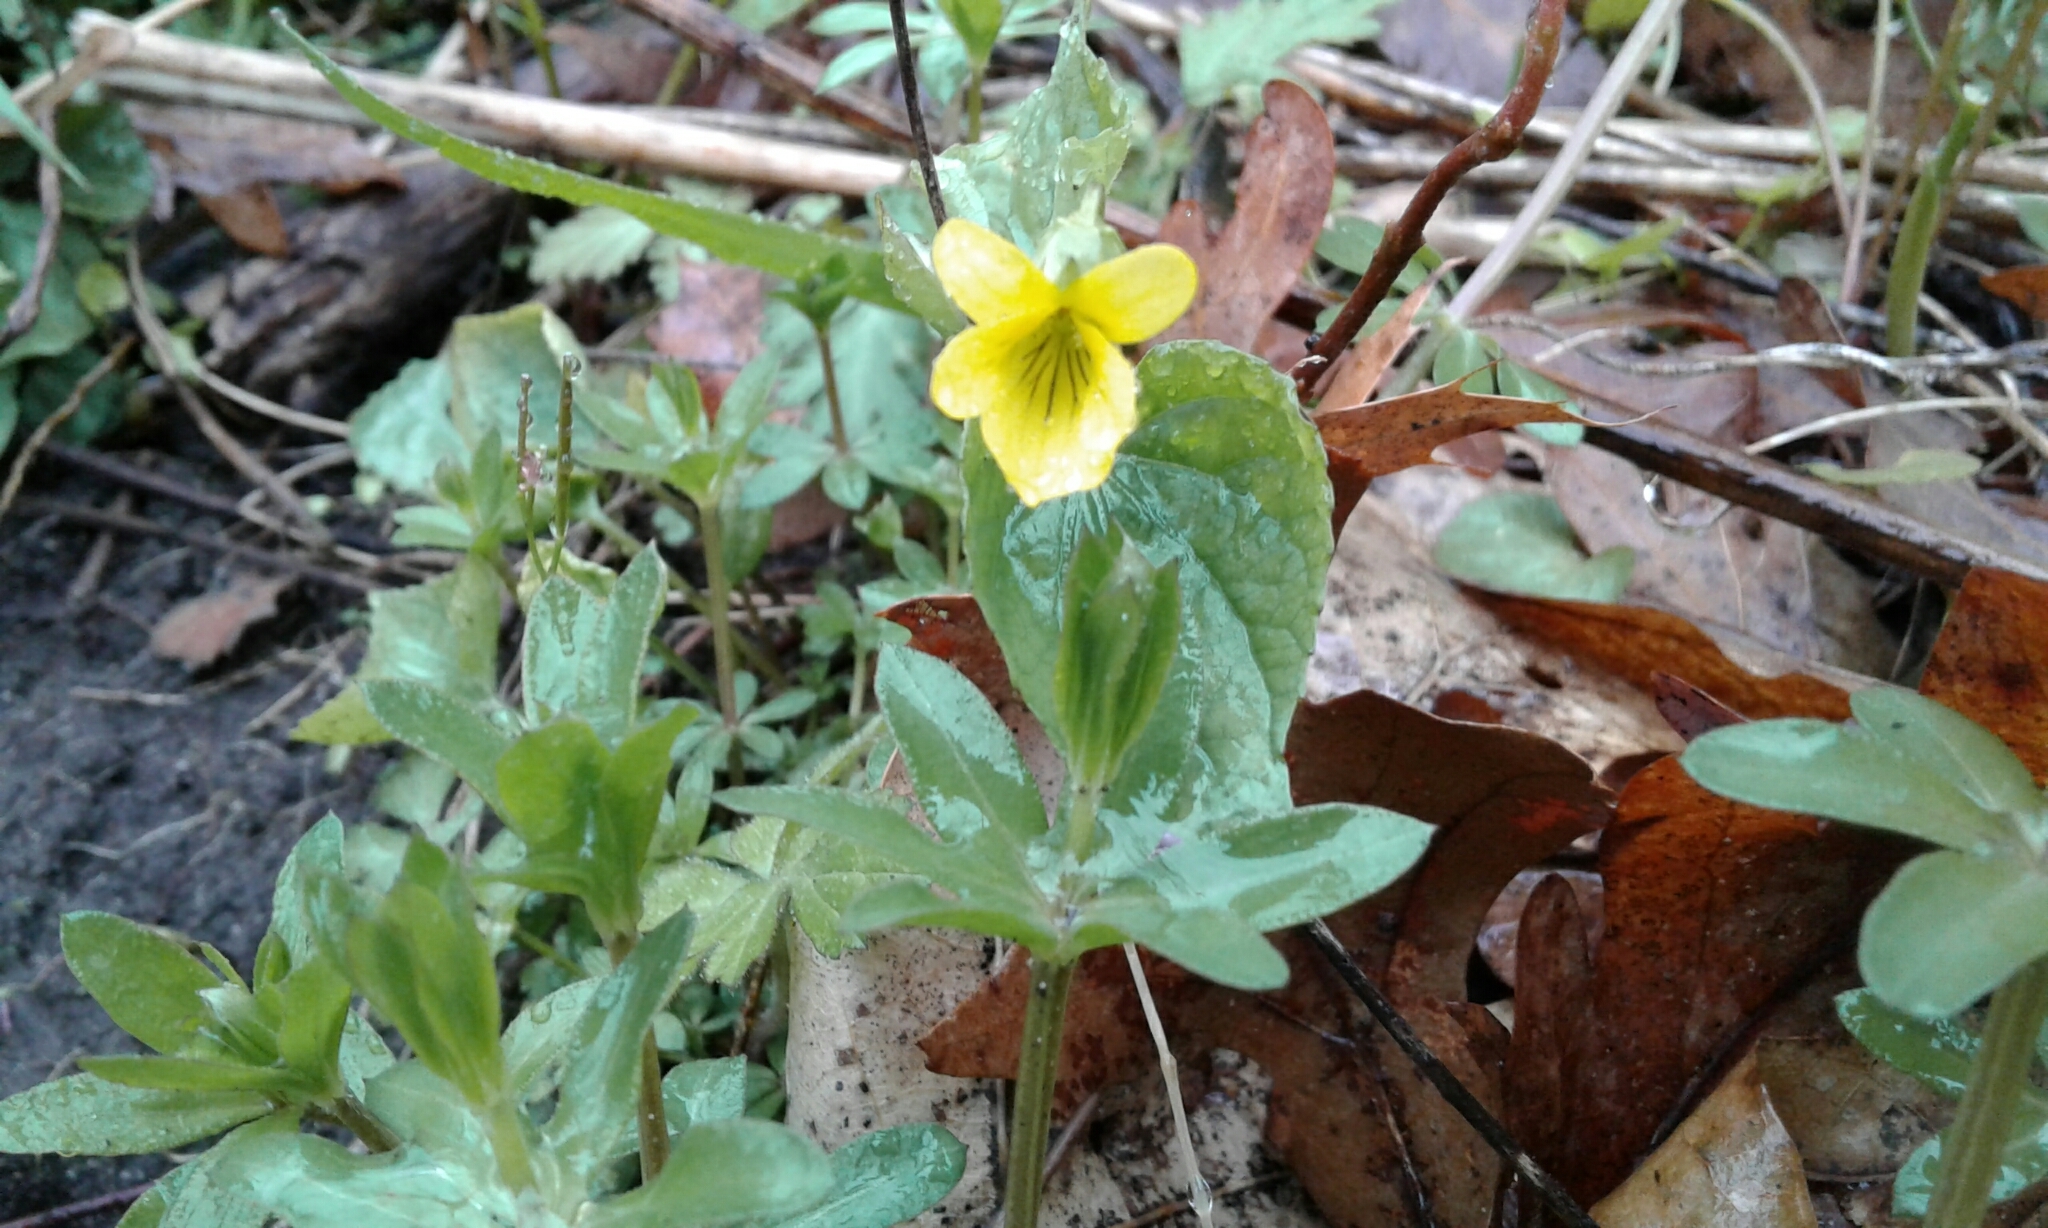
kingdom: Plantae
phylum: Tracheophyta
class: Magnoliopsida
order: Malpighiales
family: Violaceae
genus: Viola
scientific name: Viola eriocarpa
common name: Smooth yellow violet
